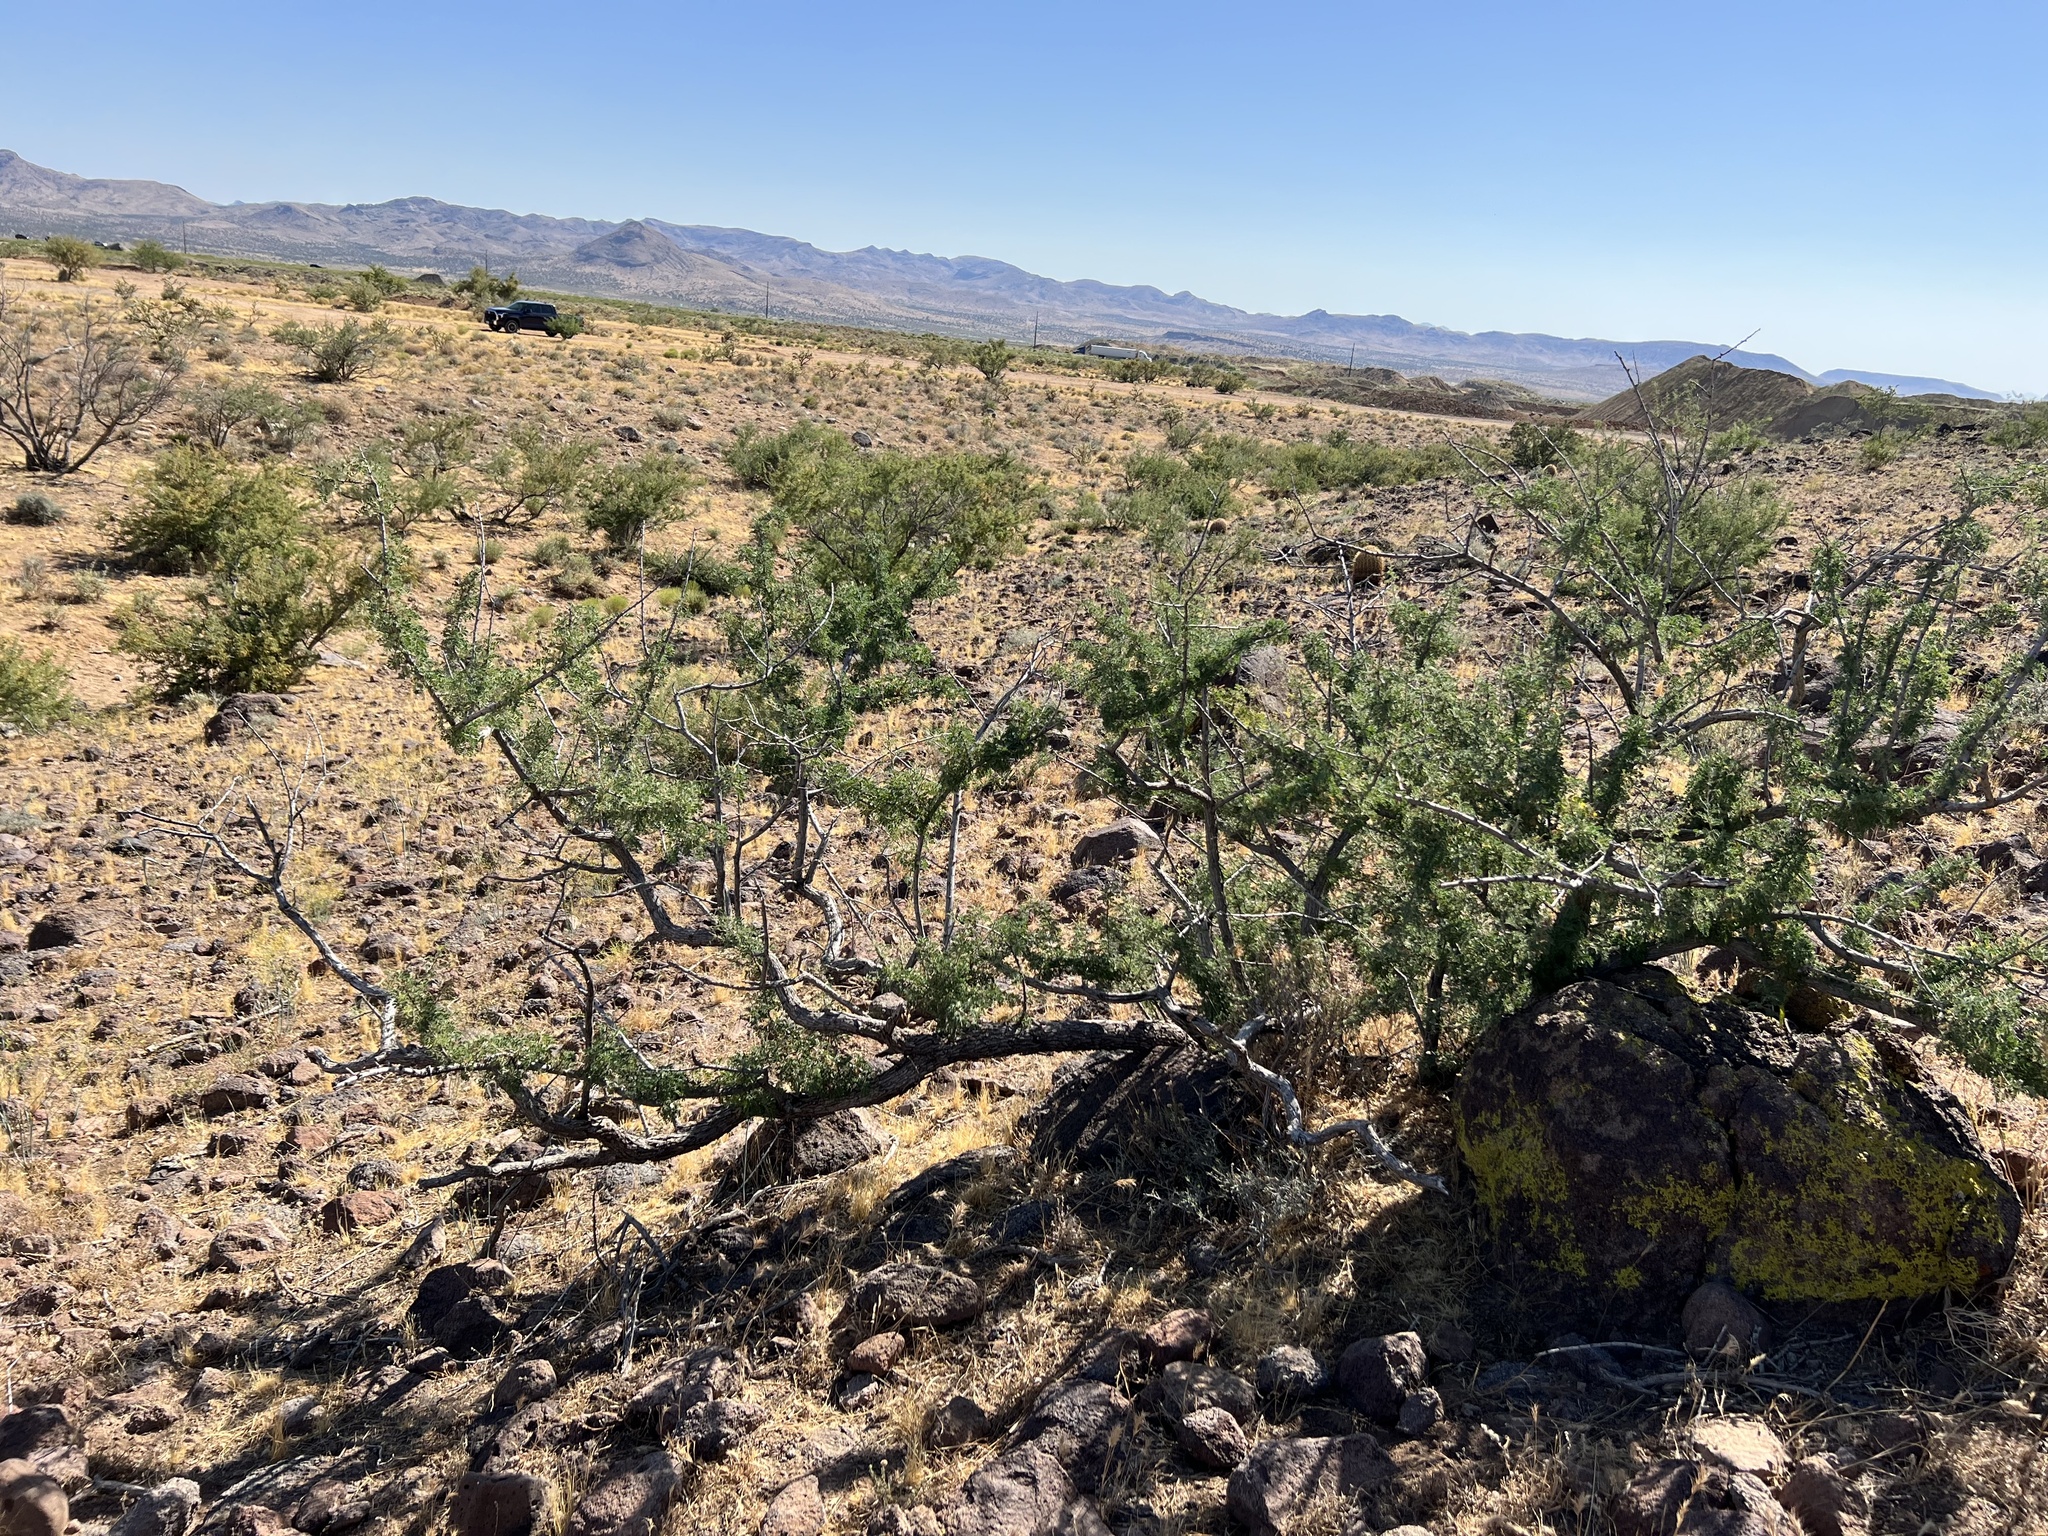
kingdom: Plantae
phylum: Tracheophyta
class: Magnoliopsida
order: Fabales
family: Fabaceae
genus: Senegalia
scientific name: Senegalia greggii
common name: Texas-mimosa
